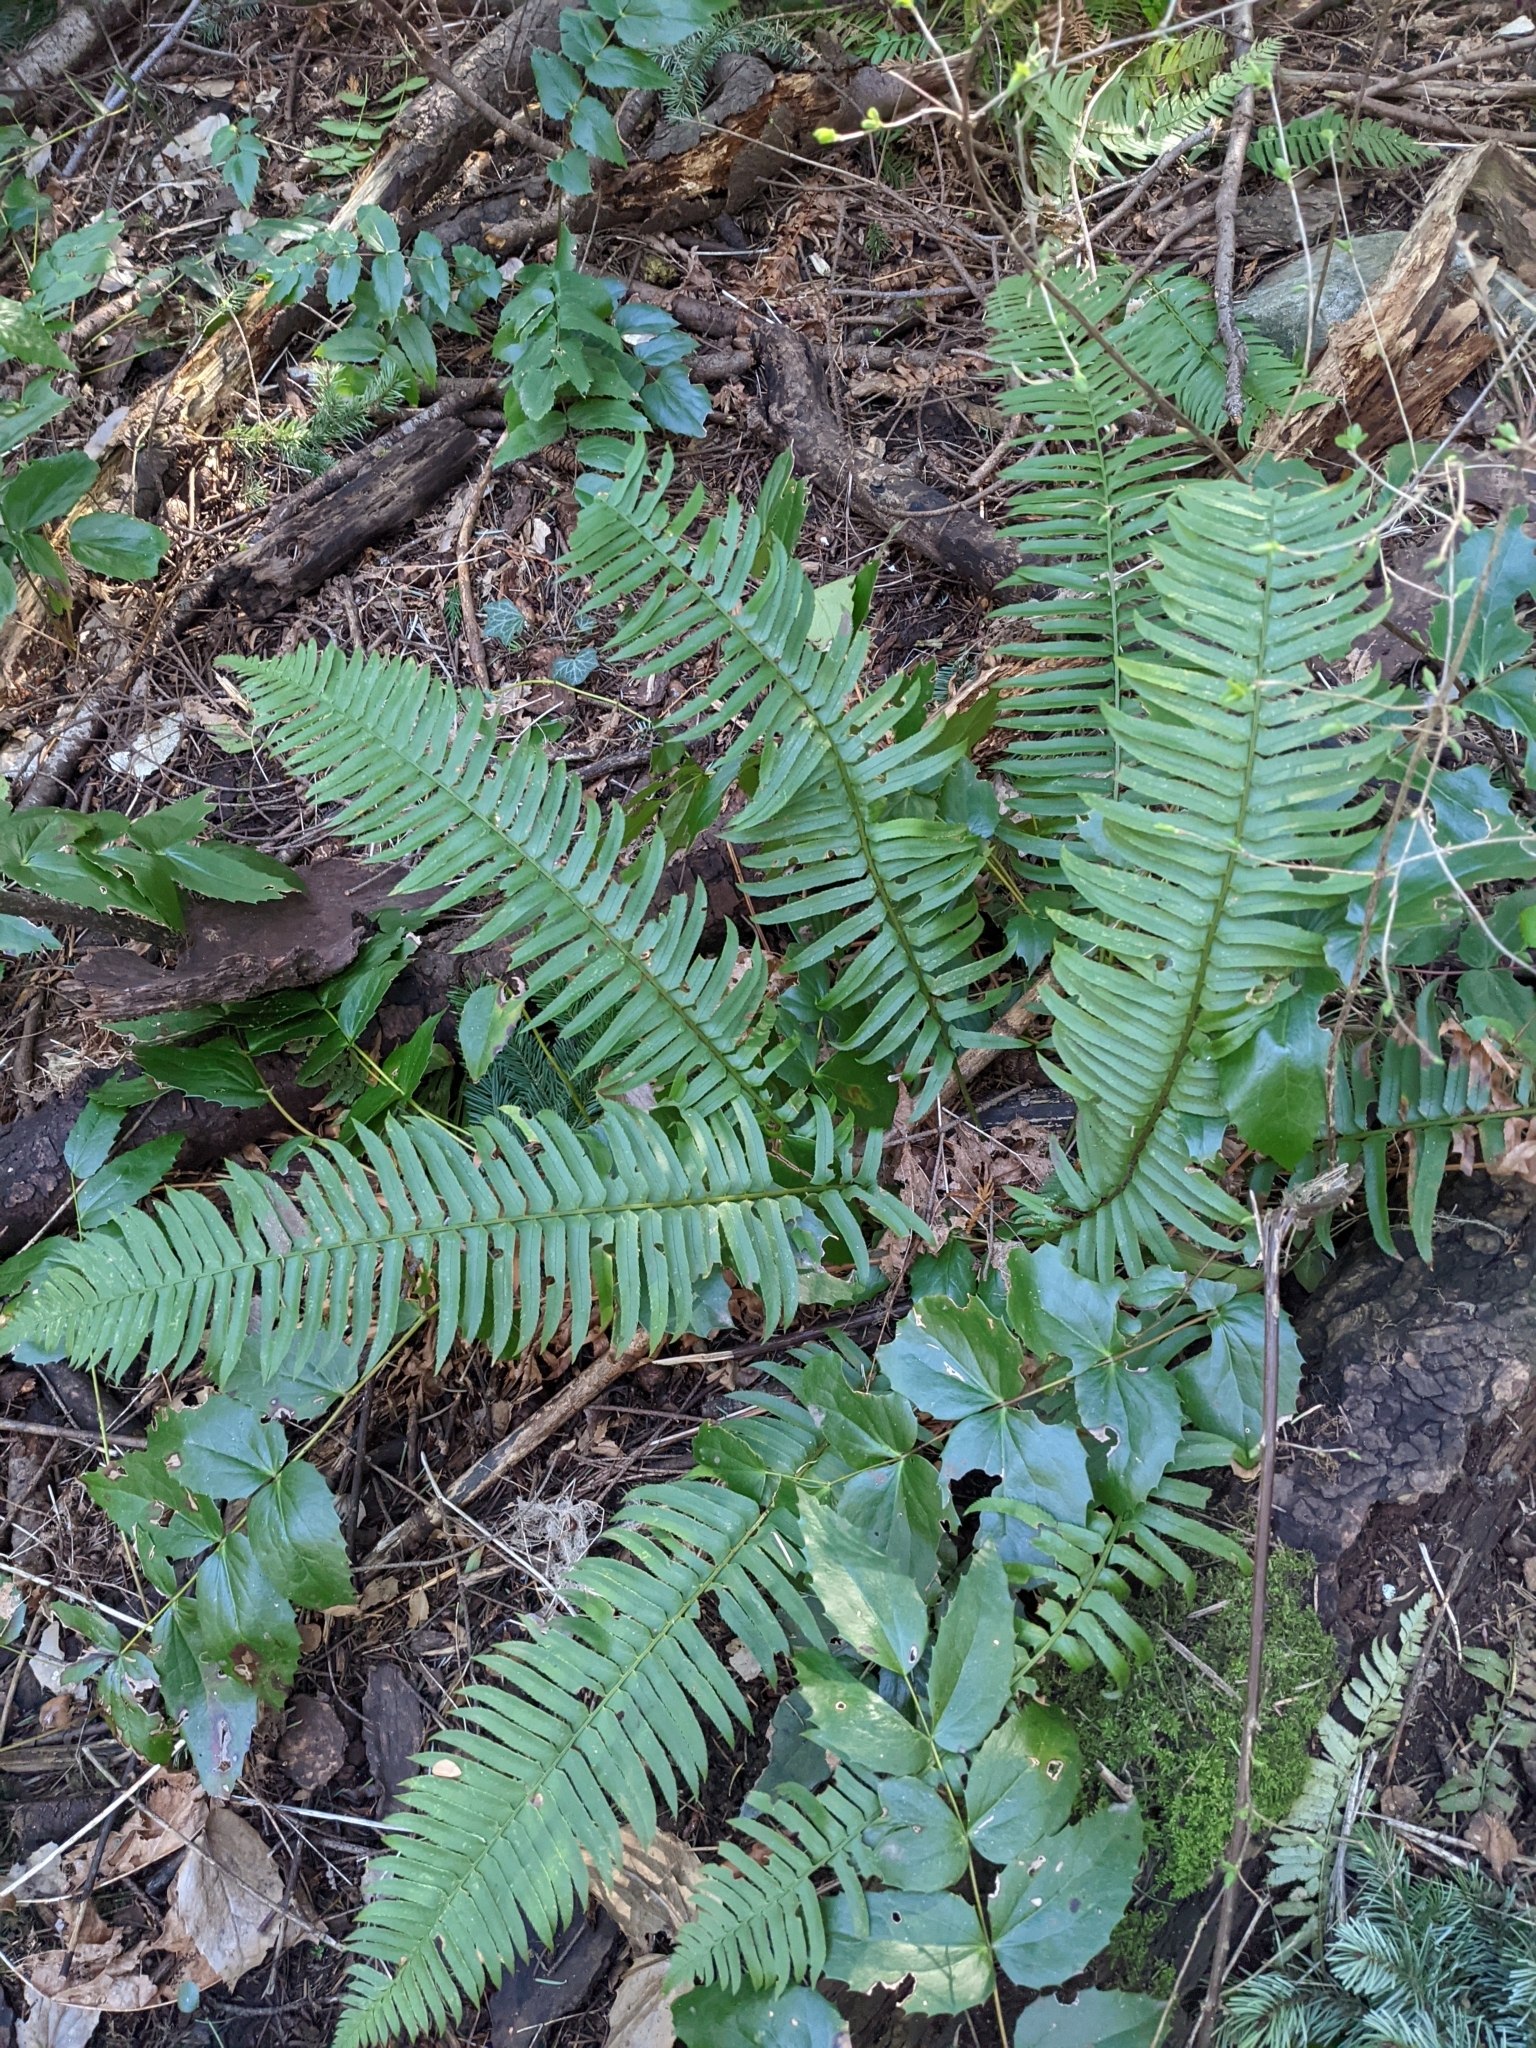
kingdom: Plantae
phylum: Tracheophyta
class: Polypodiopsida
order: Polypodiales
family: Dryopteridaceae
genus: Polystichum
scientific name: Polystichum munitum
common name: Western sword-fern
